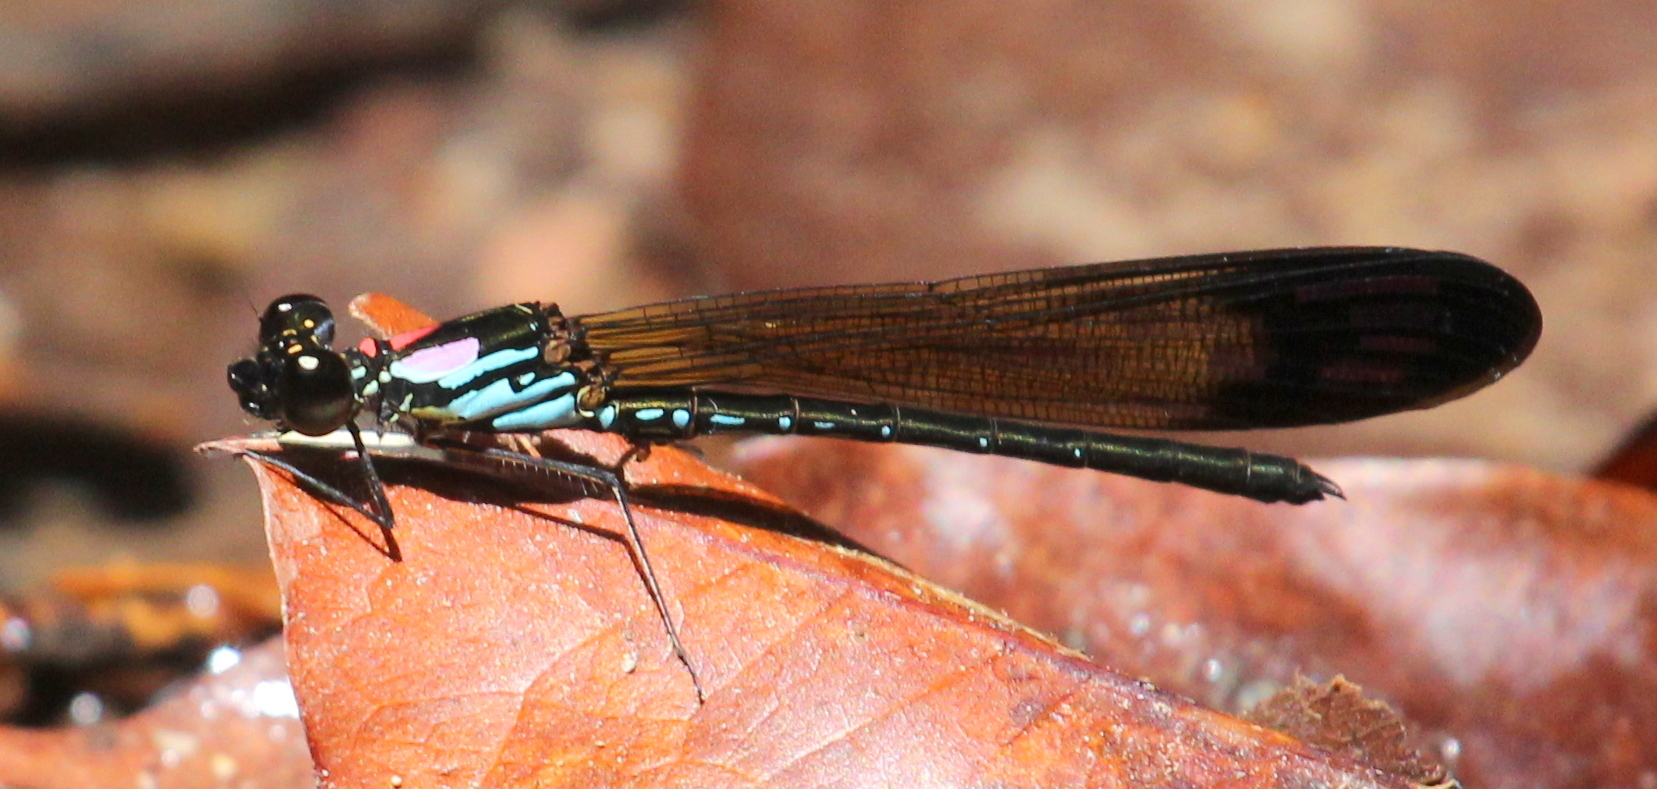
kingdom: Animalia
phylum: Arthropoda
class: Insecta
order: Odonata
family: Chlorocyphidae
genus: Heliocypha
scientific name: Heliocypha biforata
